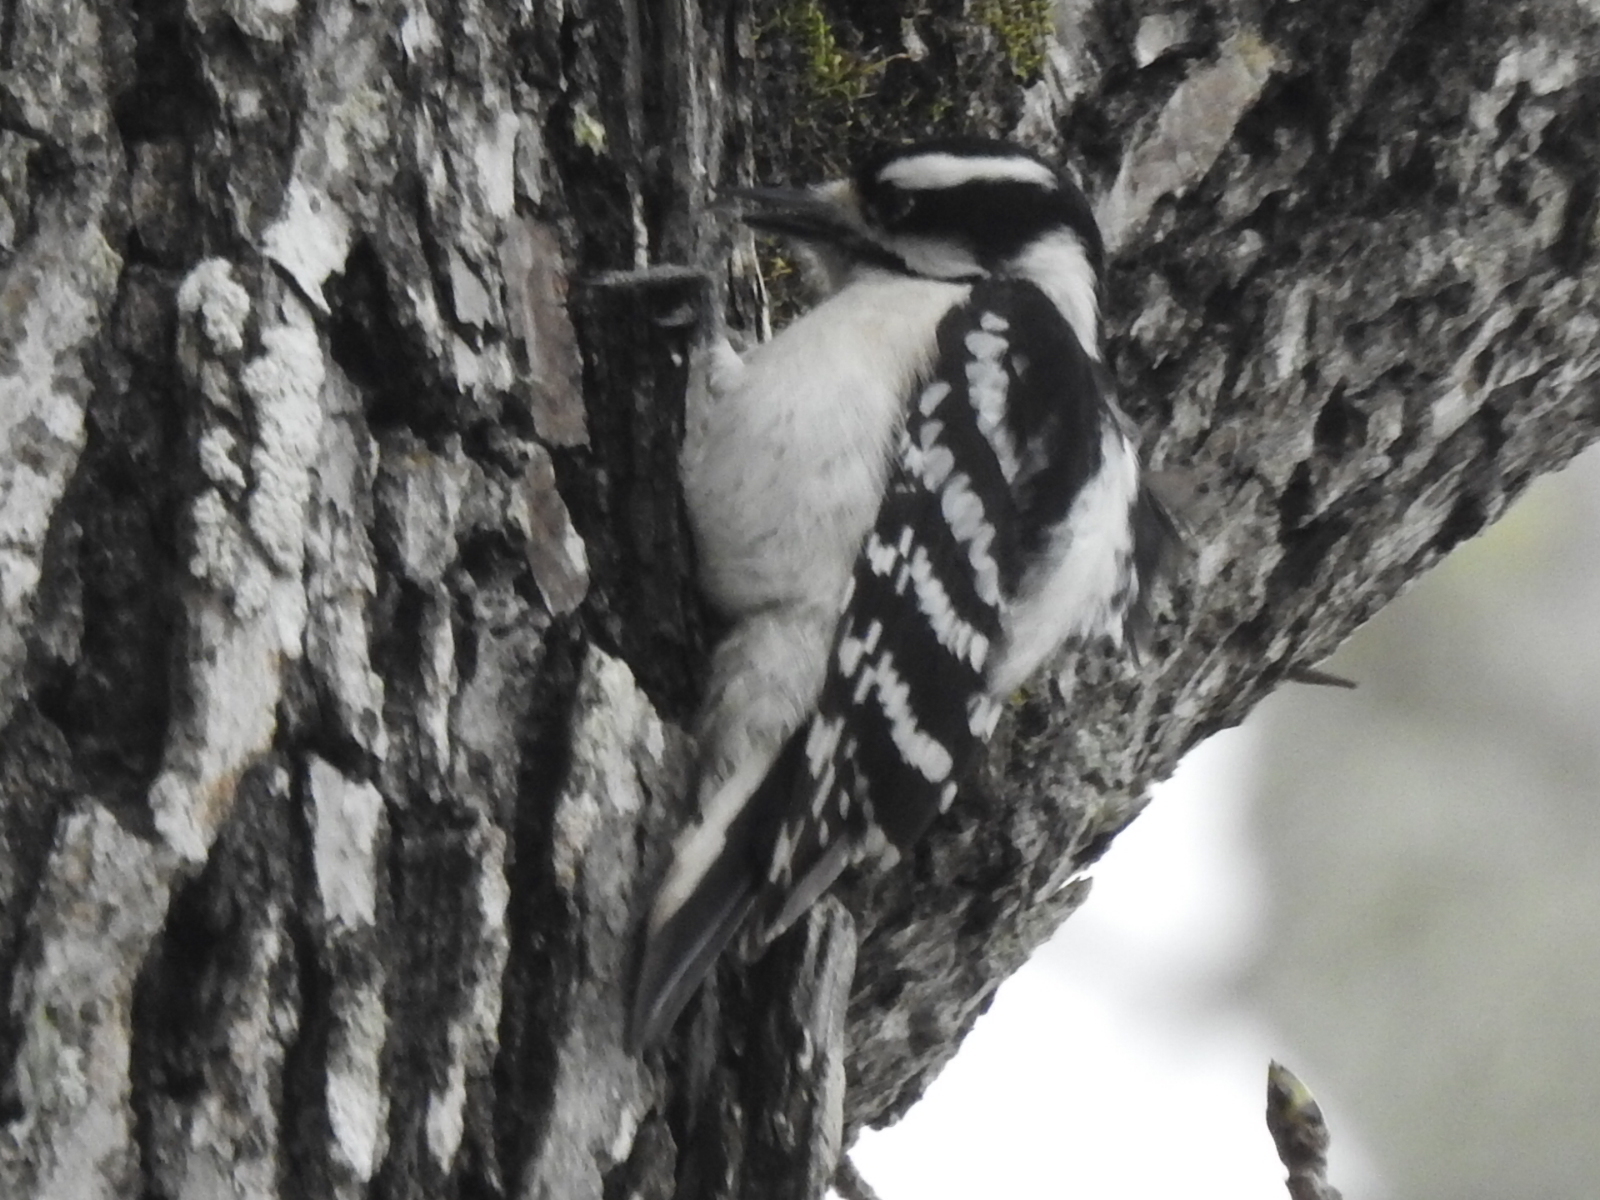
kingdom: Animalia
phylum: Chordata
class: Aves
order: Piciformes
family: Picidae
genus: Dryobates
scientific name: Dryobates pubescens
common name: Downy woodpecker
